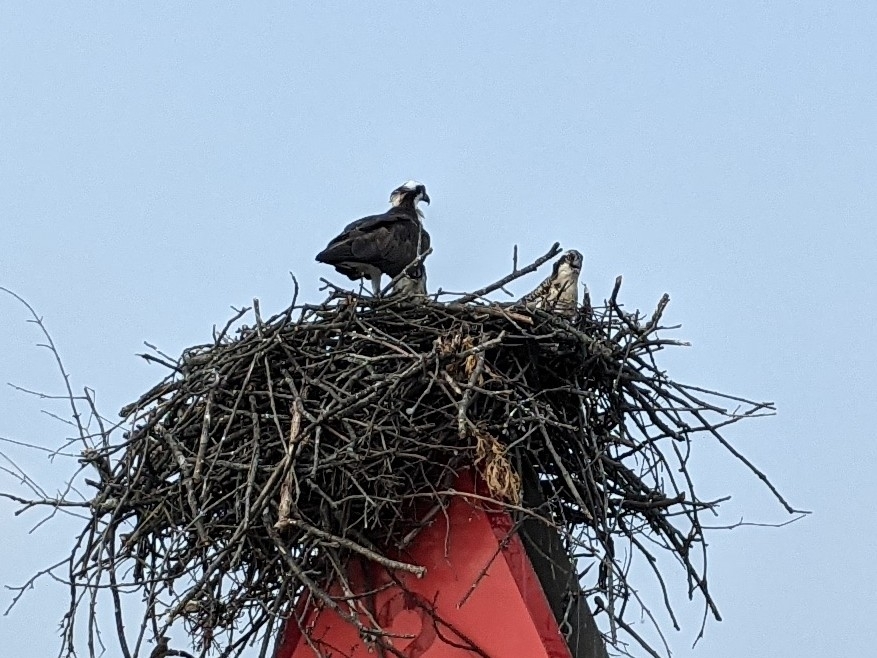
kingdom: Animalia
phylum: Chordata
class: Aves
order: Accipitriformes
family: Pandionidae
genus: Pandion
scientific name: Pandion haliaetus
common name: Osprey
